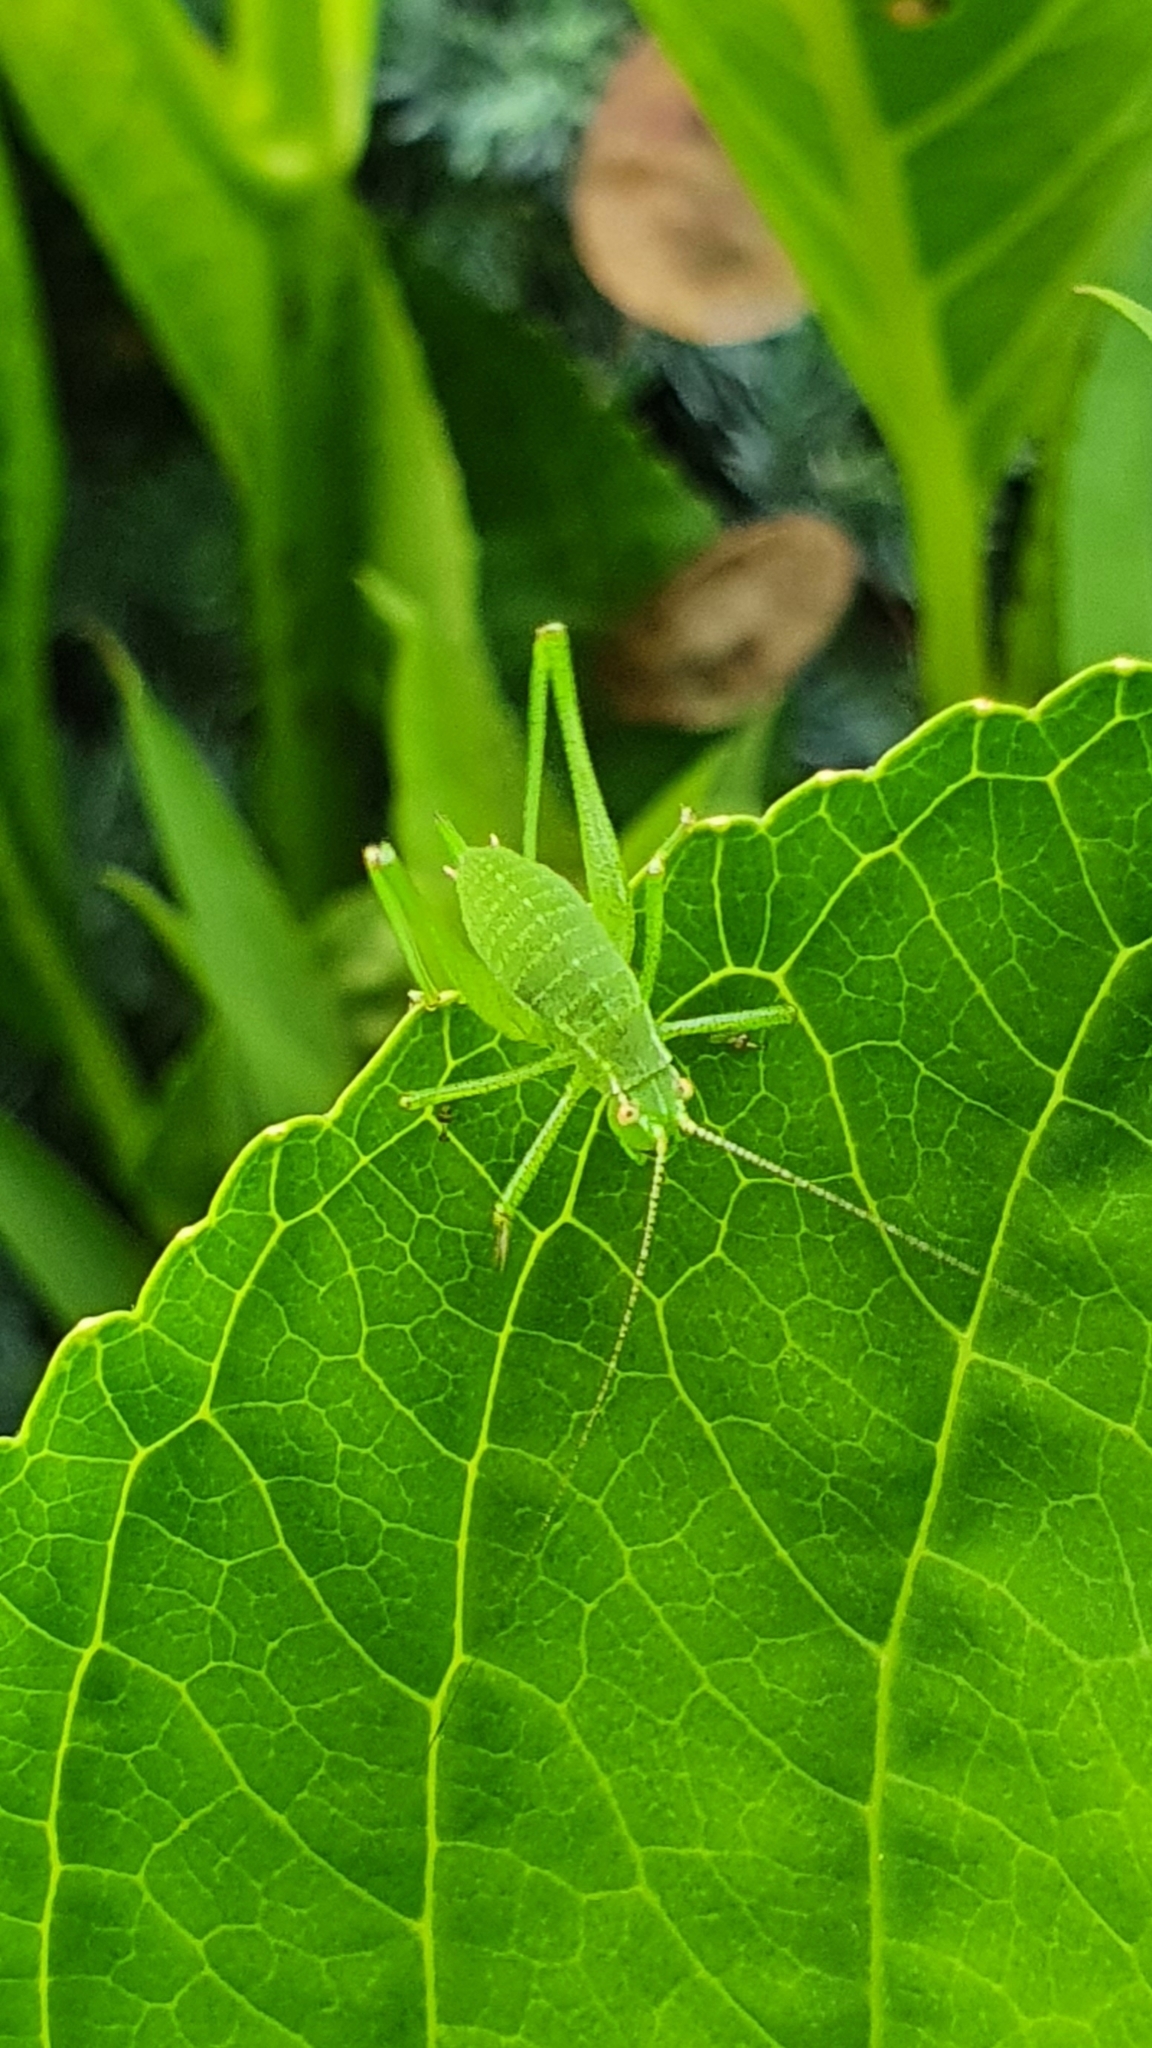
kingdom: Animalia
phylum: Arthropoda
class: Insecta
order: Orthoptera
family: Tettigoniidae
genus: Leptophyes
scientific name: Leptophyes punctatissima
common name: Speckled bush-cricket
